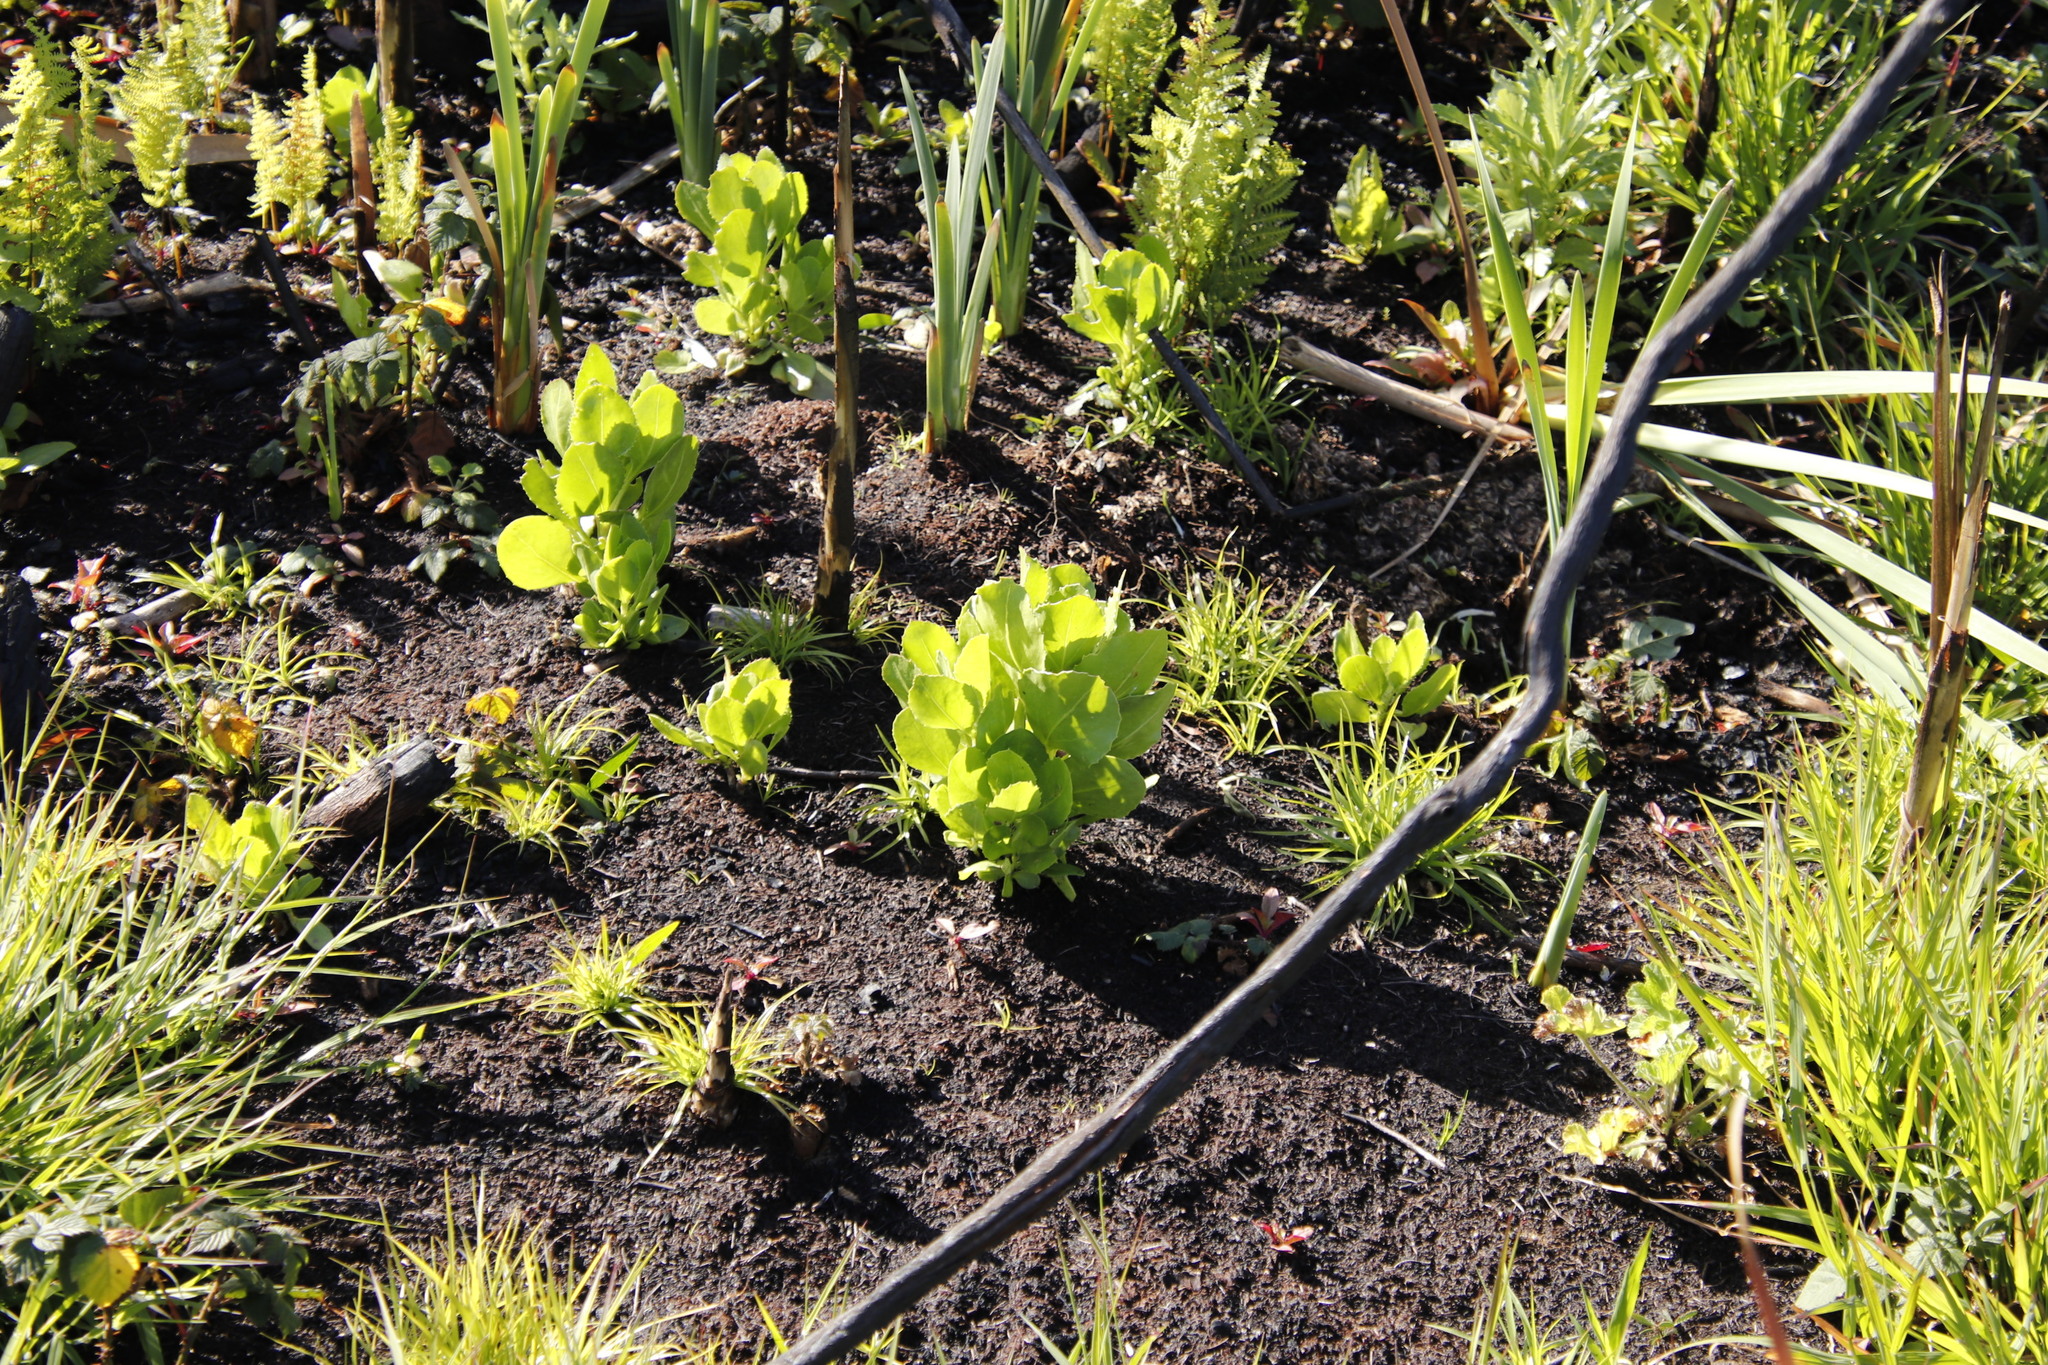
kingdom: Plantae
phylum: Tracheophyta
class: Magnoliopsida
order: Asterales
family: Asteraceae
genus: Osteospermum
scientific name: Osteospermum moniliferum
